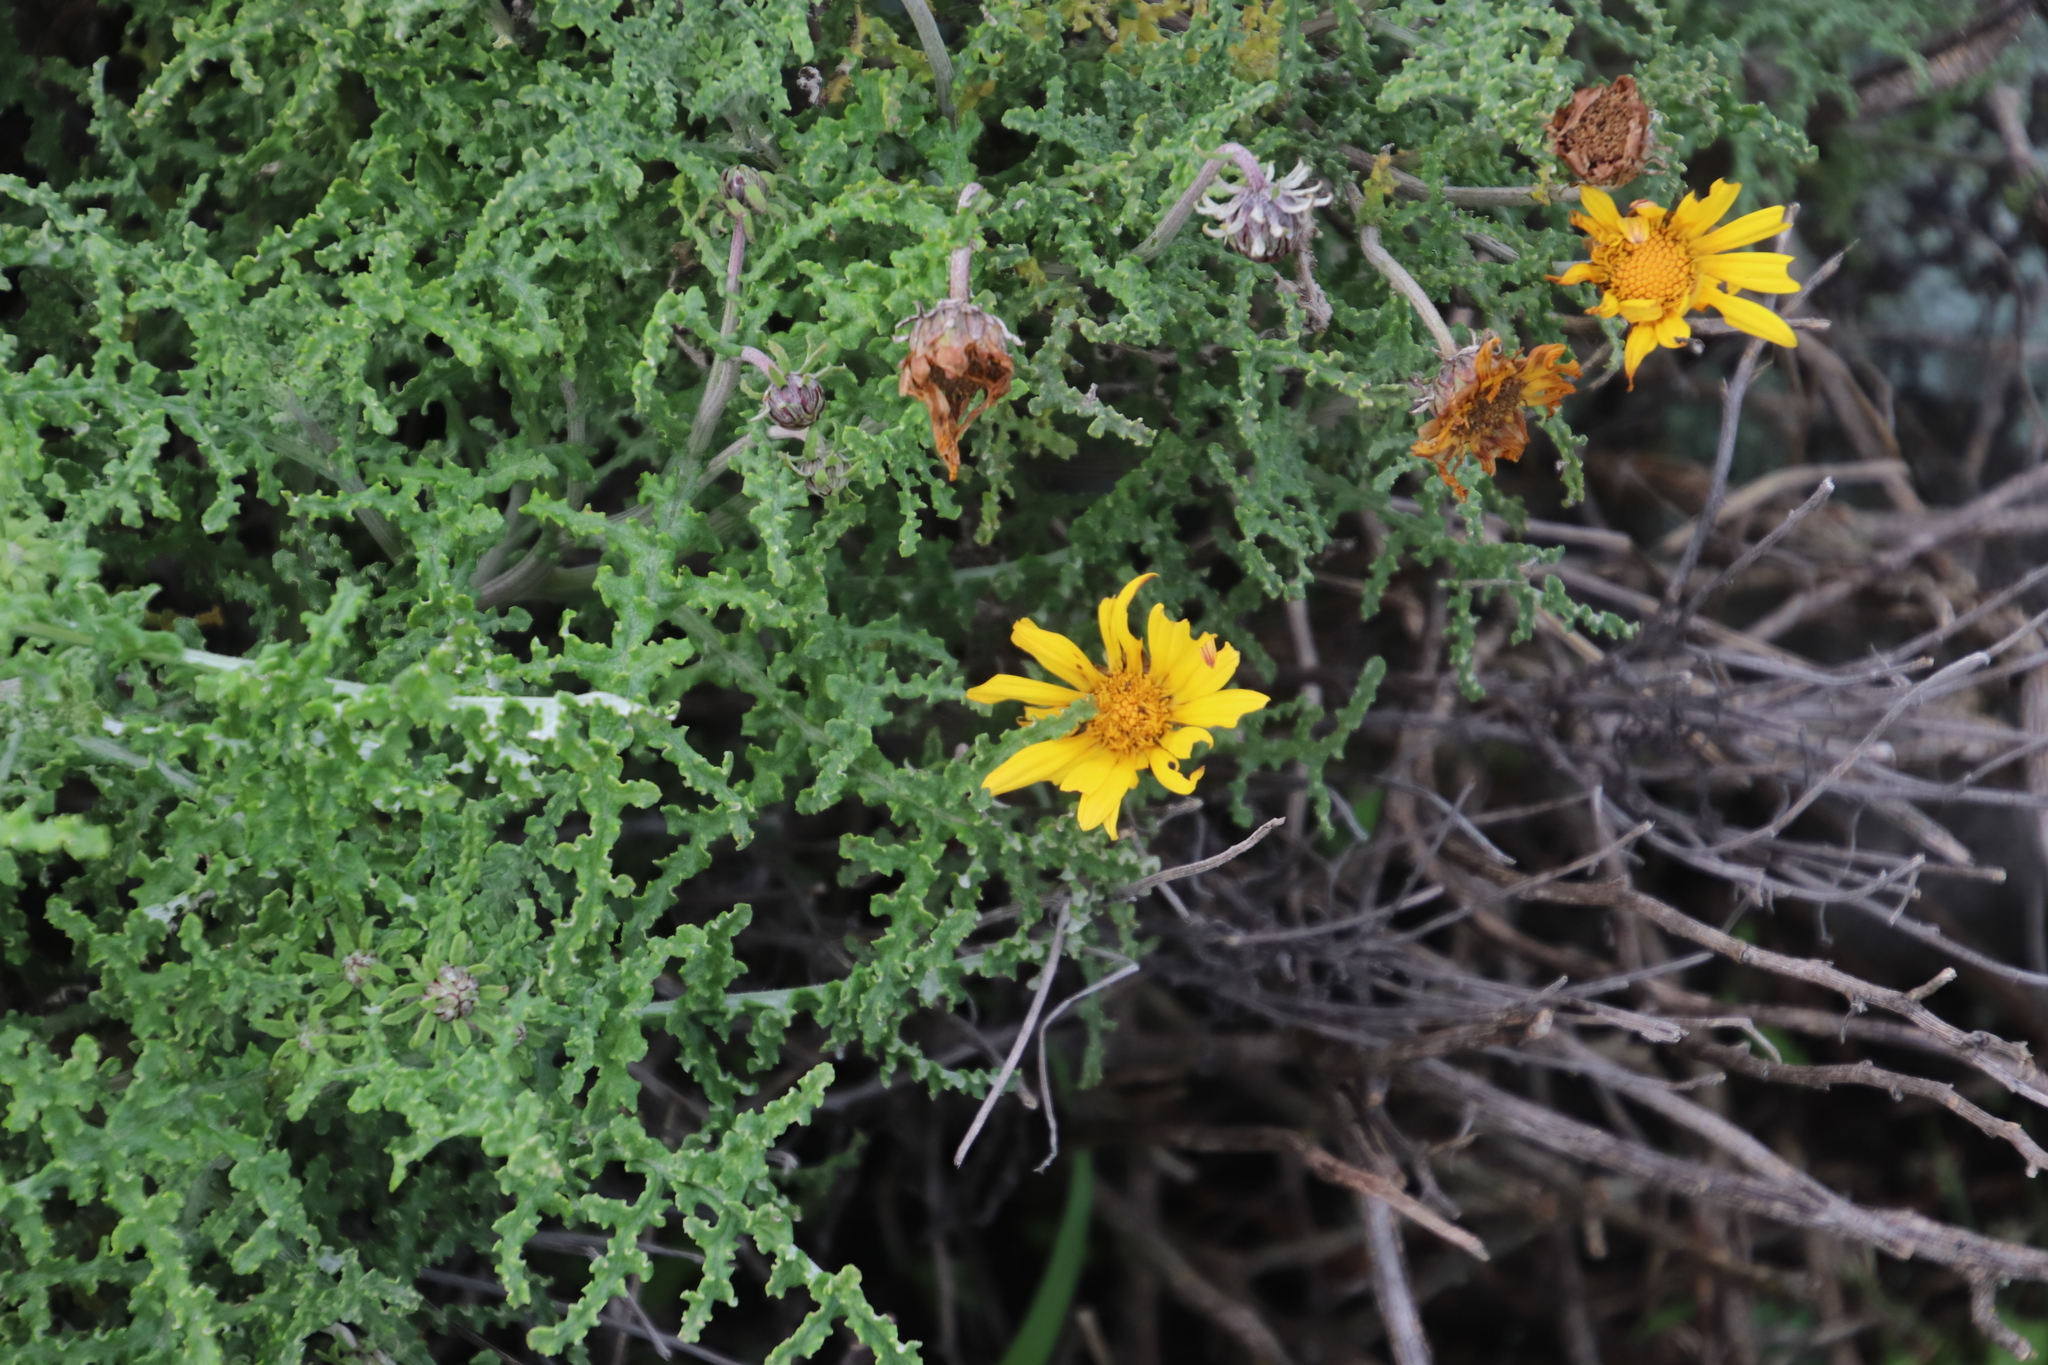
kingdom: Plantae
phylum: Tracheophyta
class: Magnoliopsida
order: Asterales
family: Asteraceae
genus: Arctotis
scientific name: Arctotis laciniata
